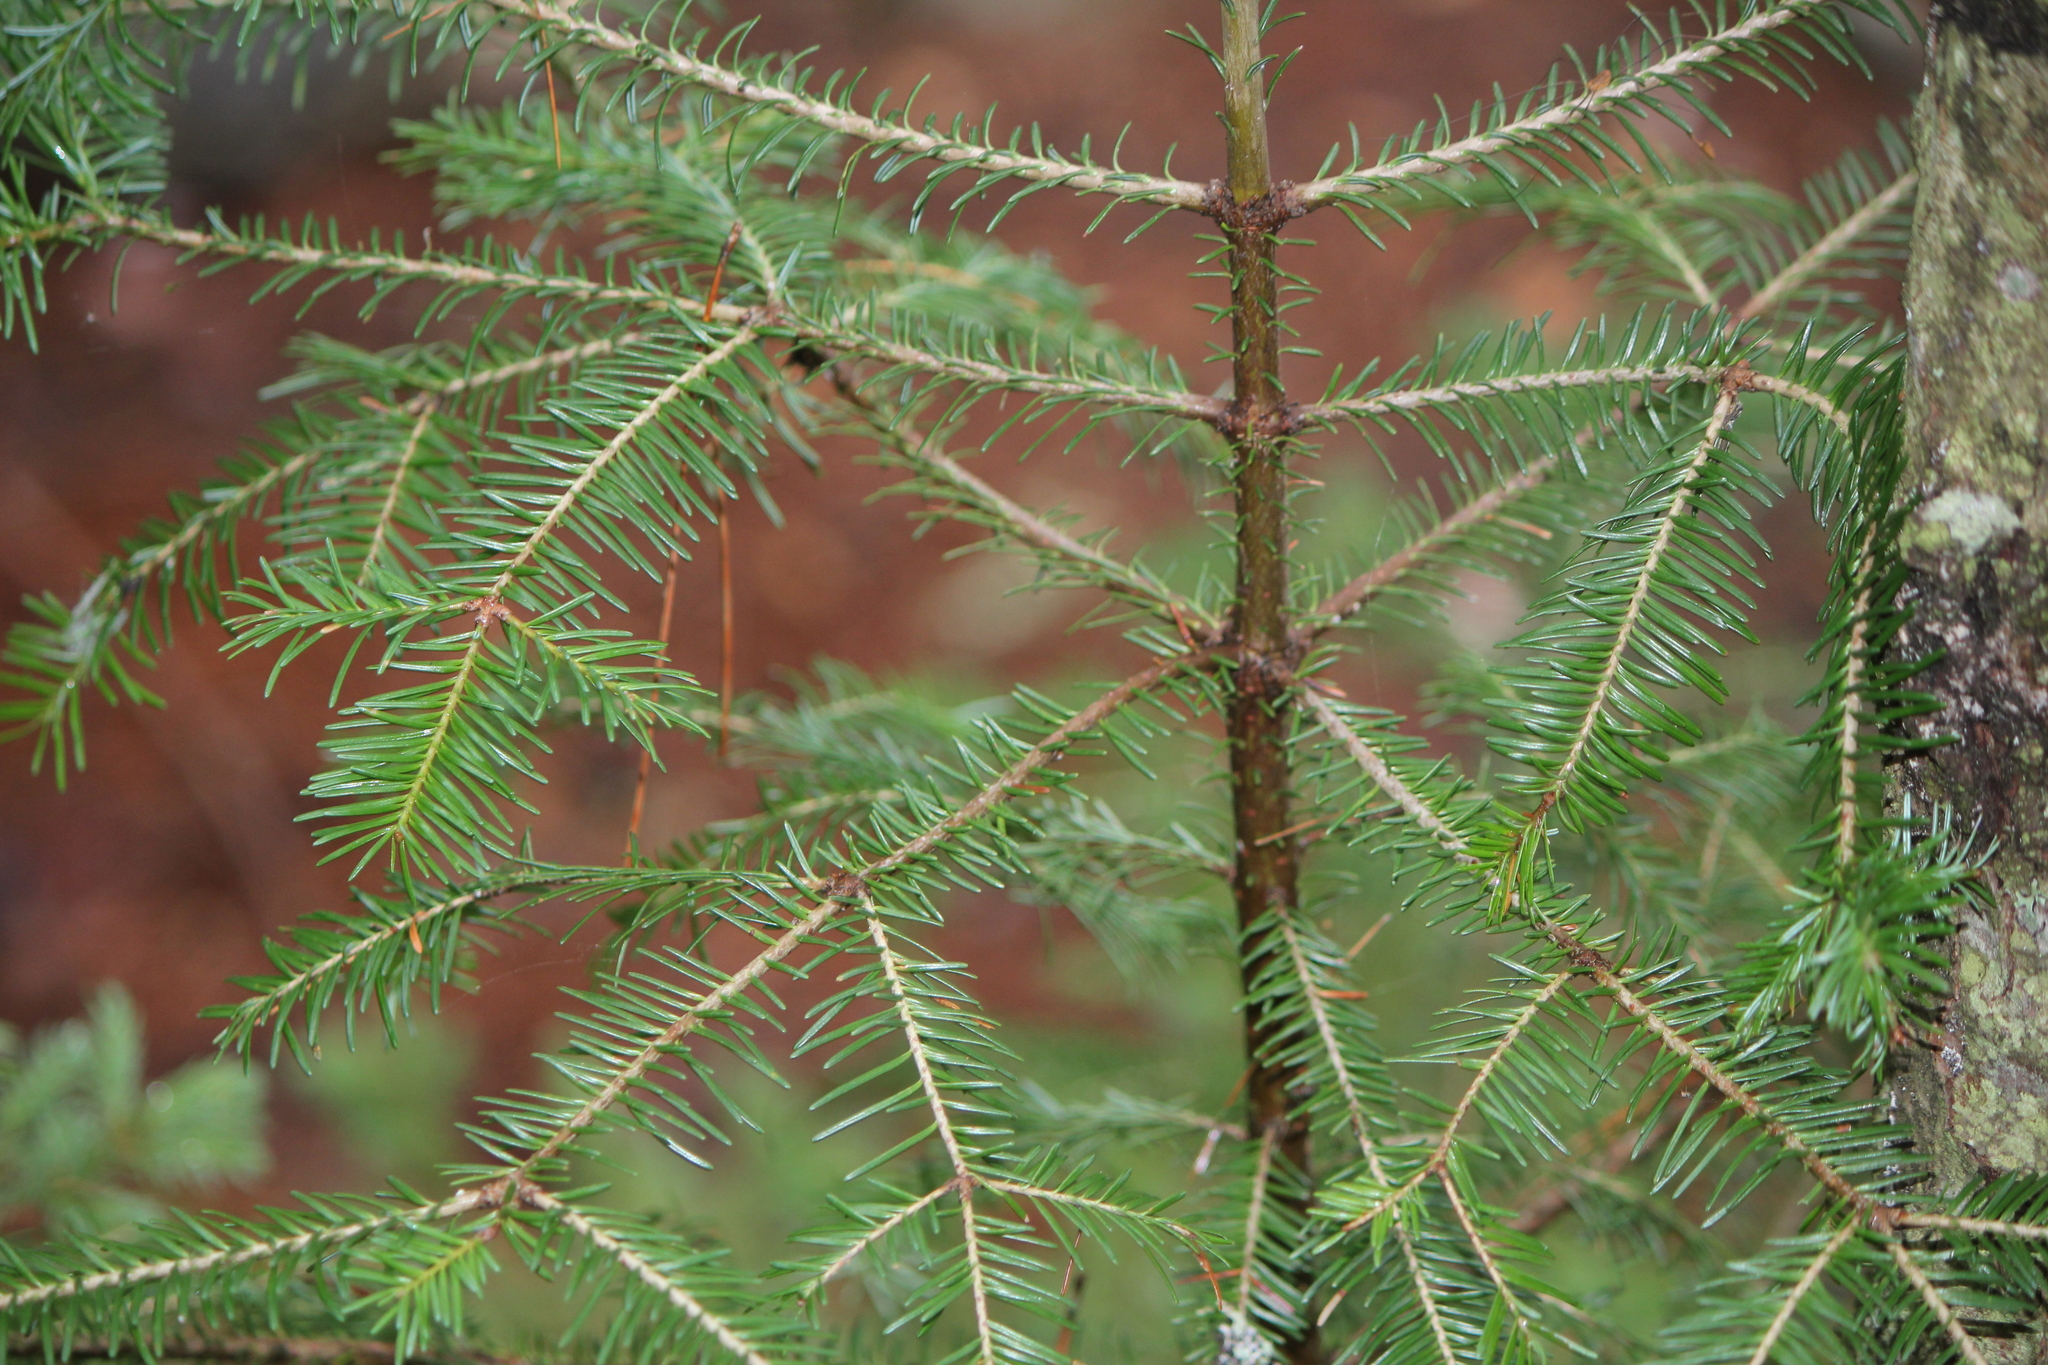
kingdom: Plantae
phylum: Tracheophyta
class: Pinopsida
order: Pinales
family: Pinaceae
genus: Abies
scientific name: Abies balsamea
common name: Balsam fir
